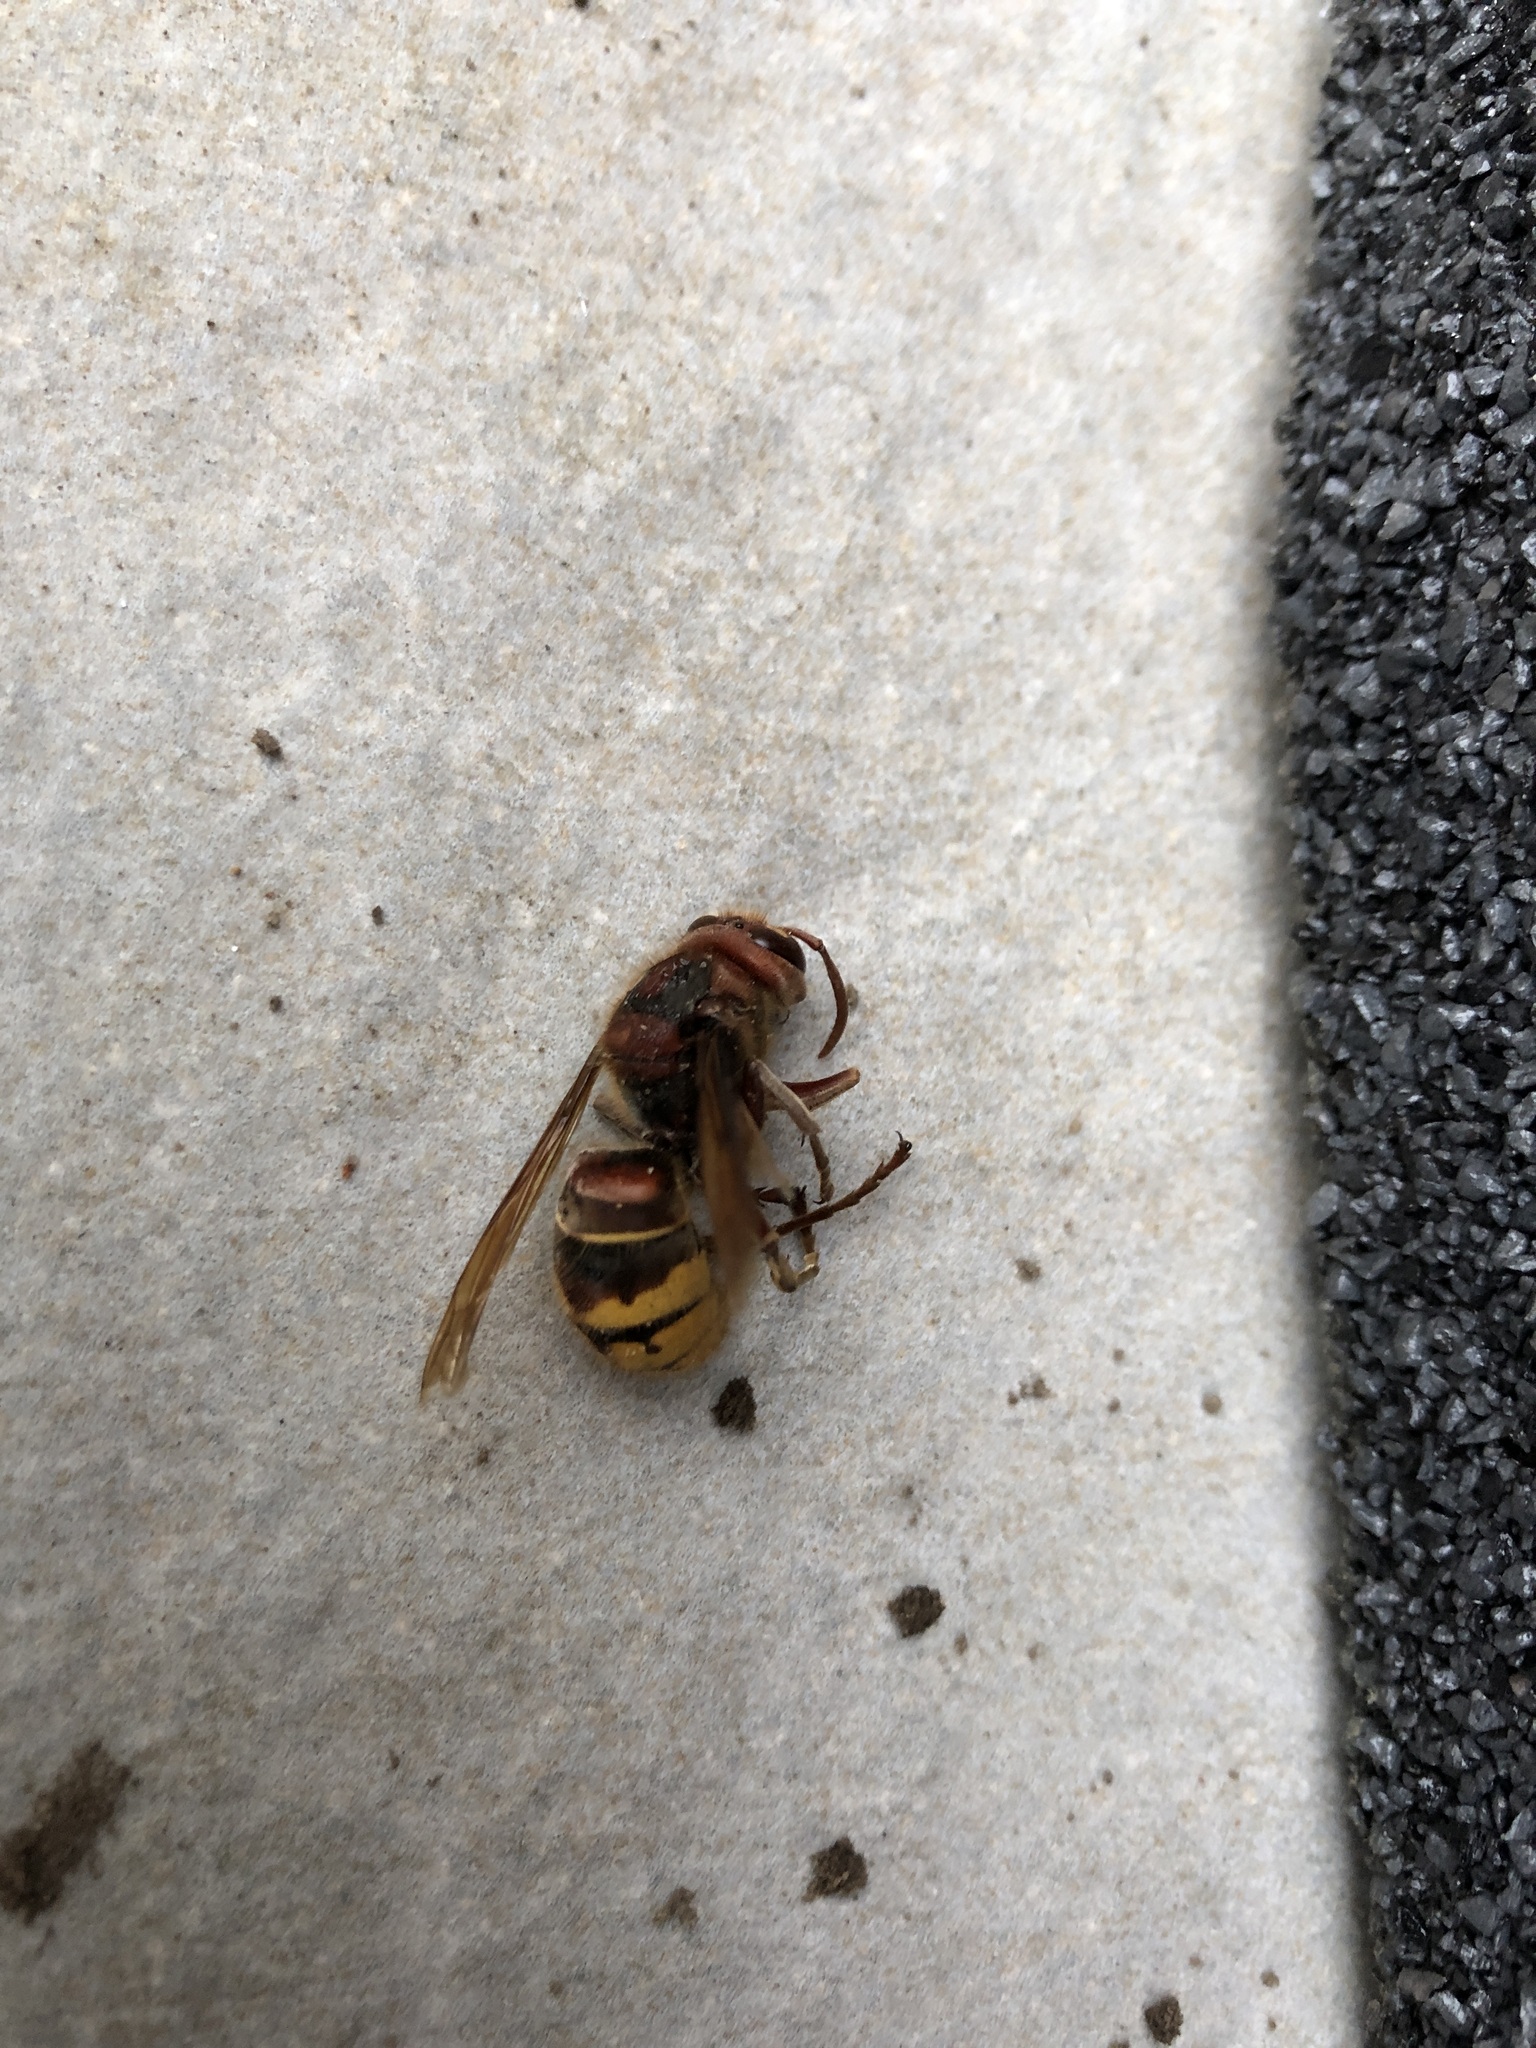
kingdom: Animalia
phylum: Arthropoda
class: Insecta
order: Hymenoptera
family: Vespidae
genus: Vespa
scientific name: Vespa crabro
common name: Hornet
